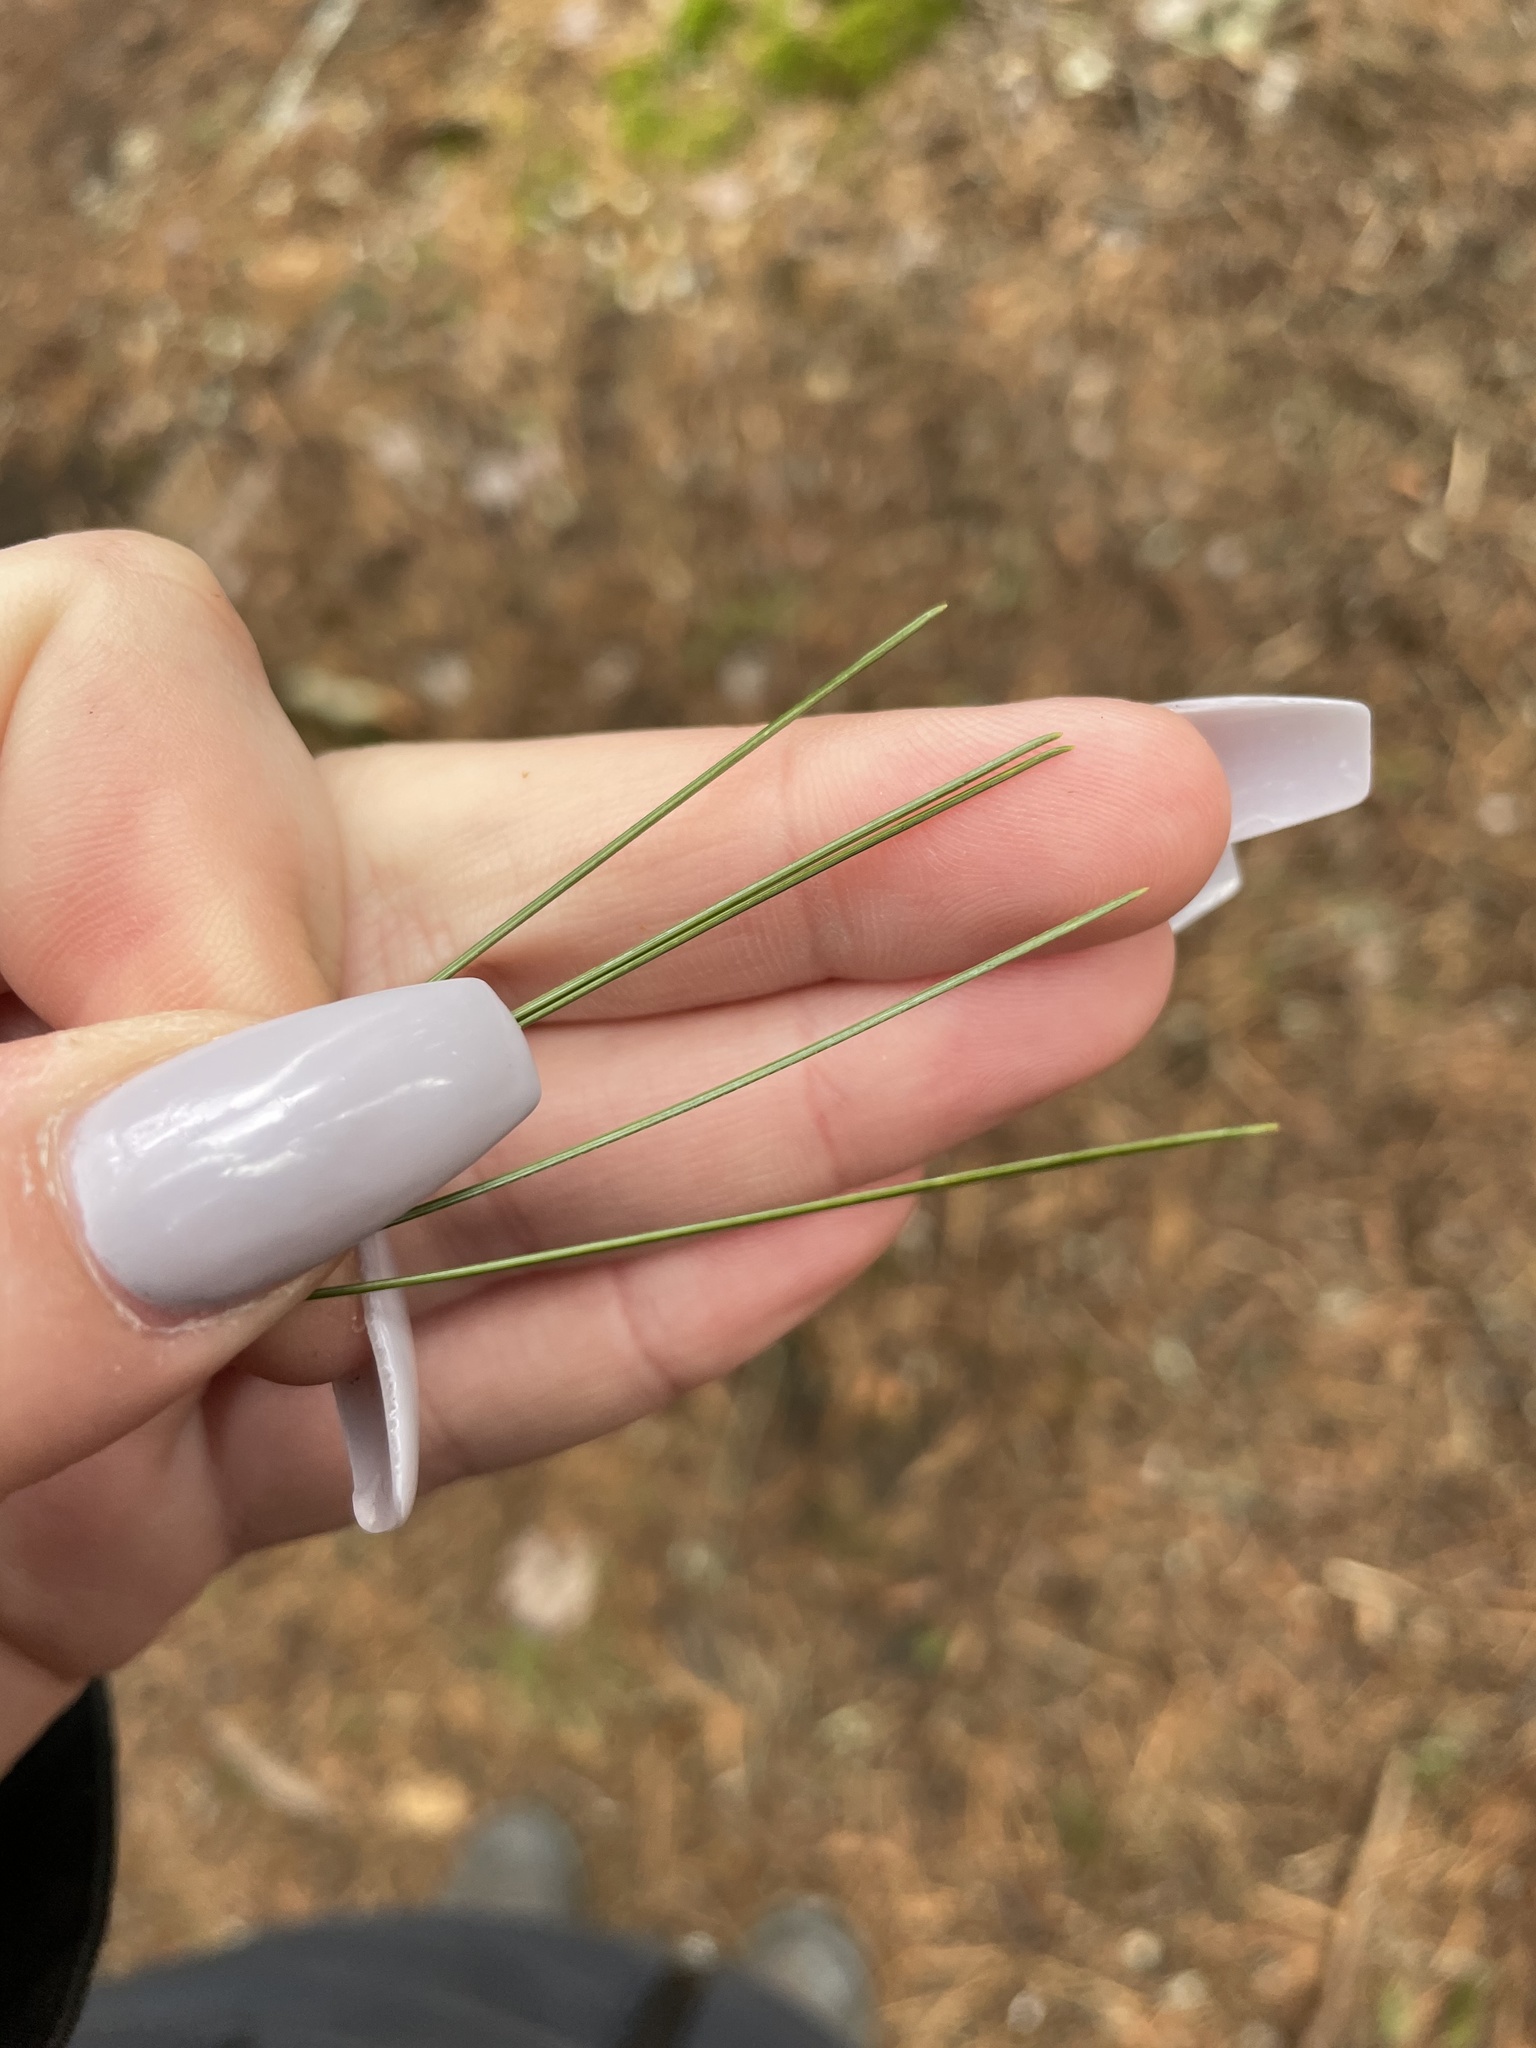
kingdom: Plantae
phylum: Tracheophyta
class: Pinopsida
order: Pinales
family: Pinaceae
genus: Pinus
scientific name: Pinus strobus
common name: Weymouth pine
